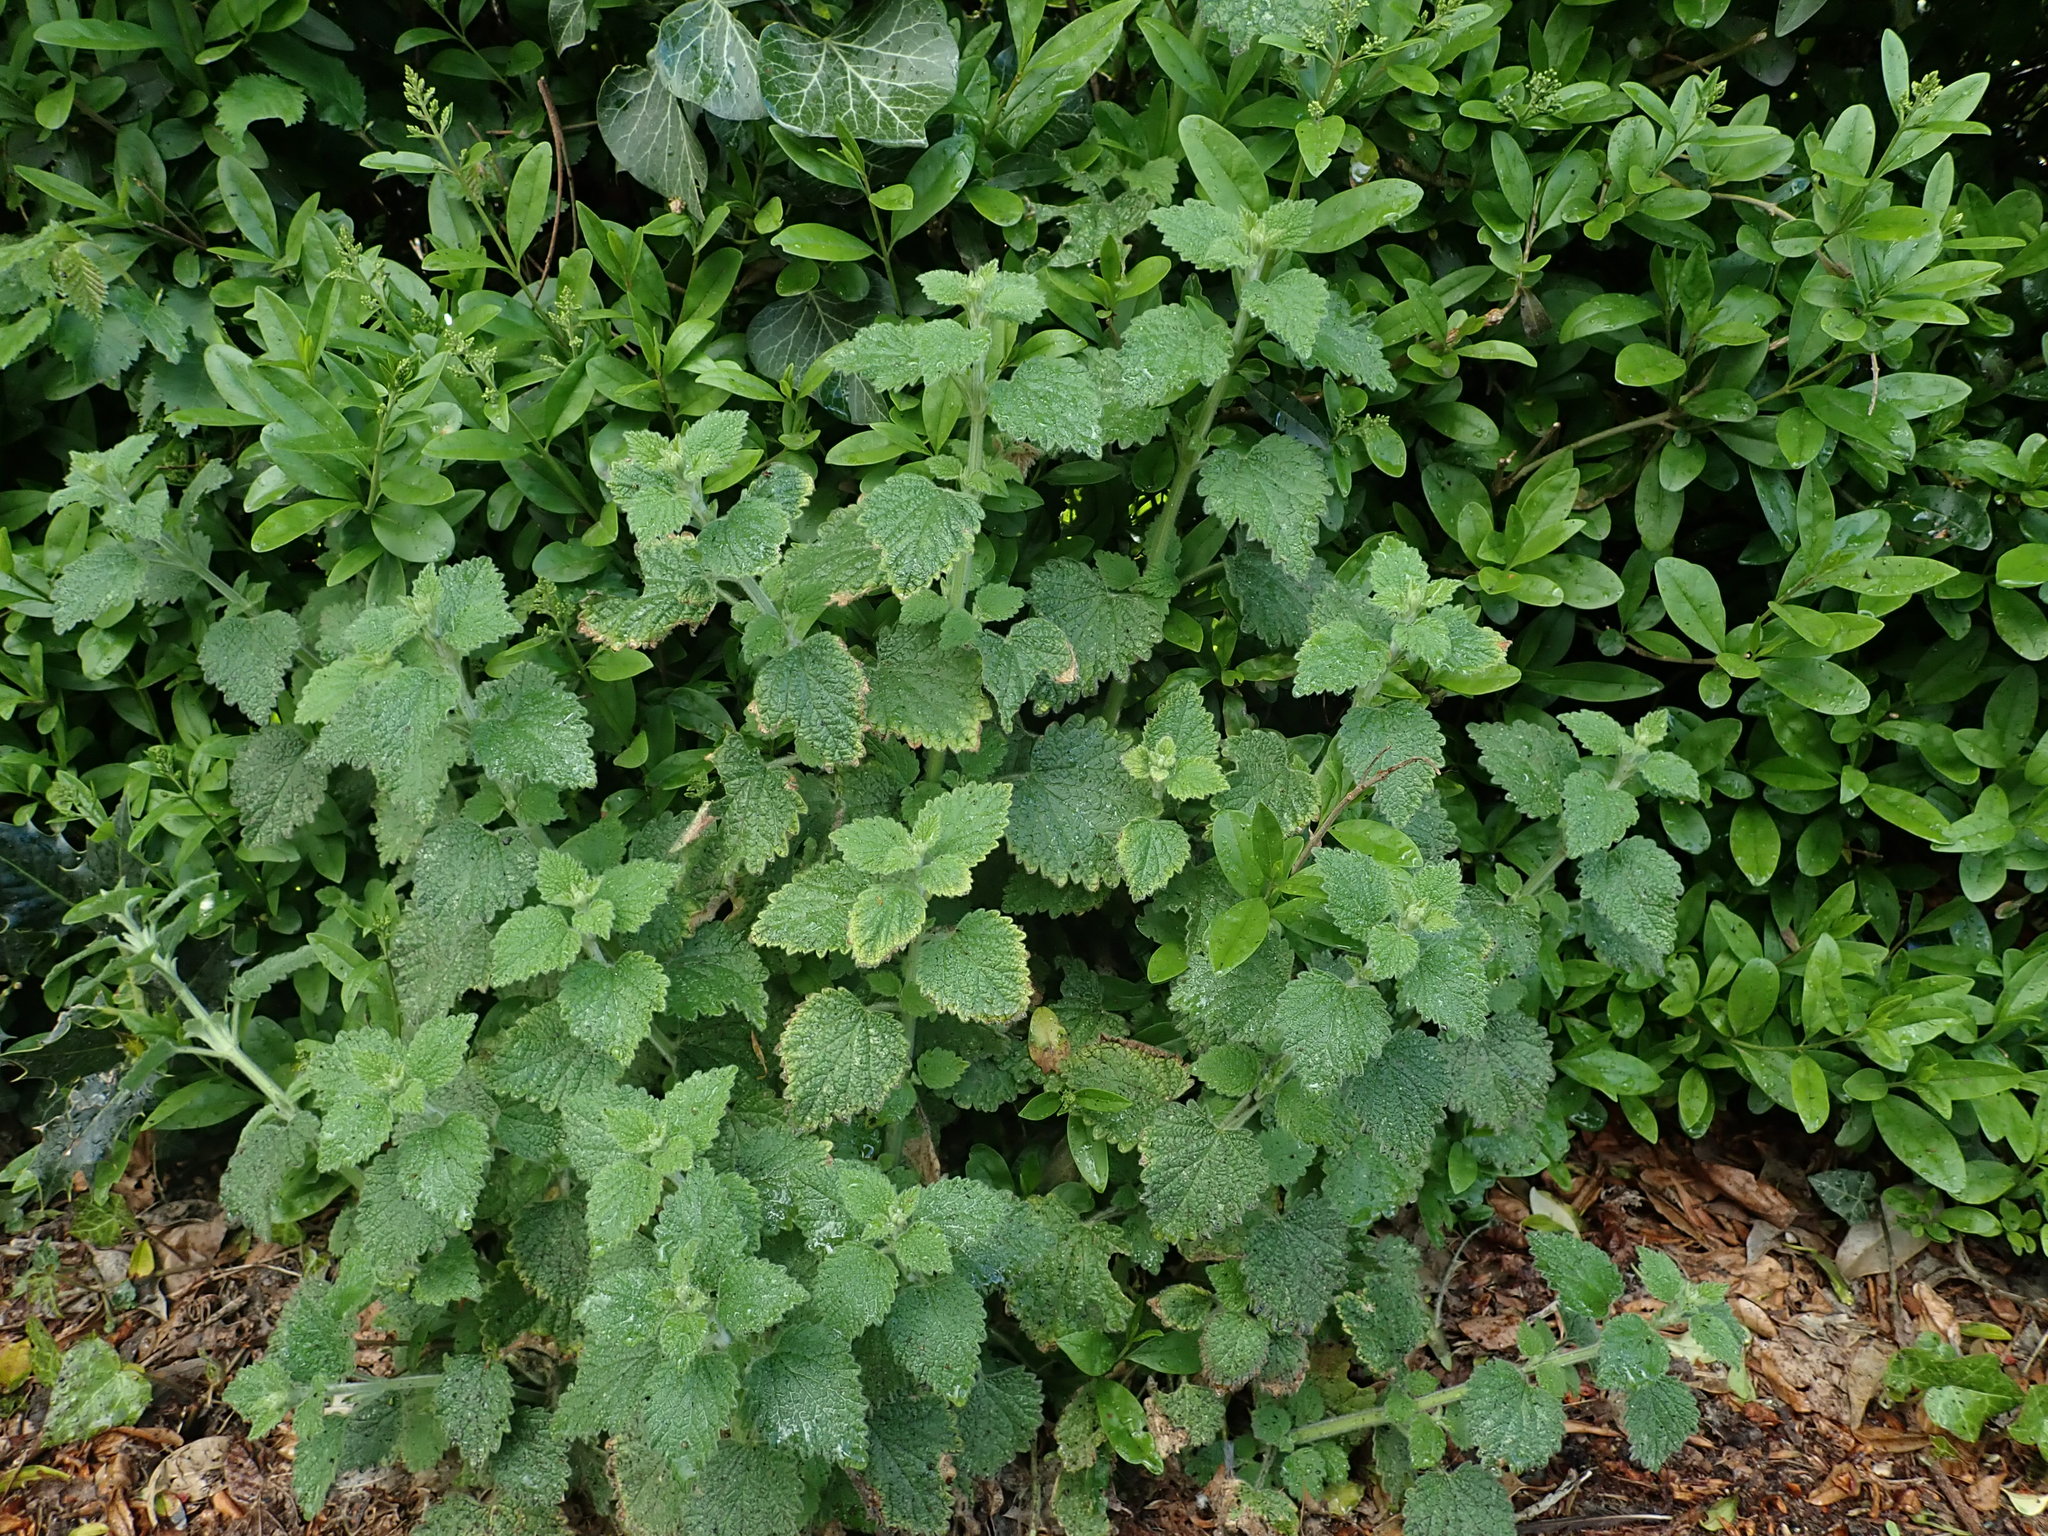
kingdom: Plantae
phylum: Tracheophyta
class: Magnoliopsida
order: Lamiales
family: Lamiaceae
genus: Ballota
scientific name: Ballota nigra
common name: Black horehound
